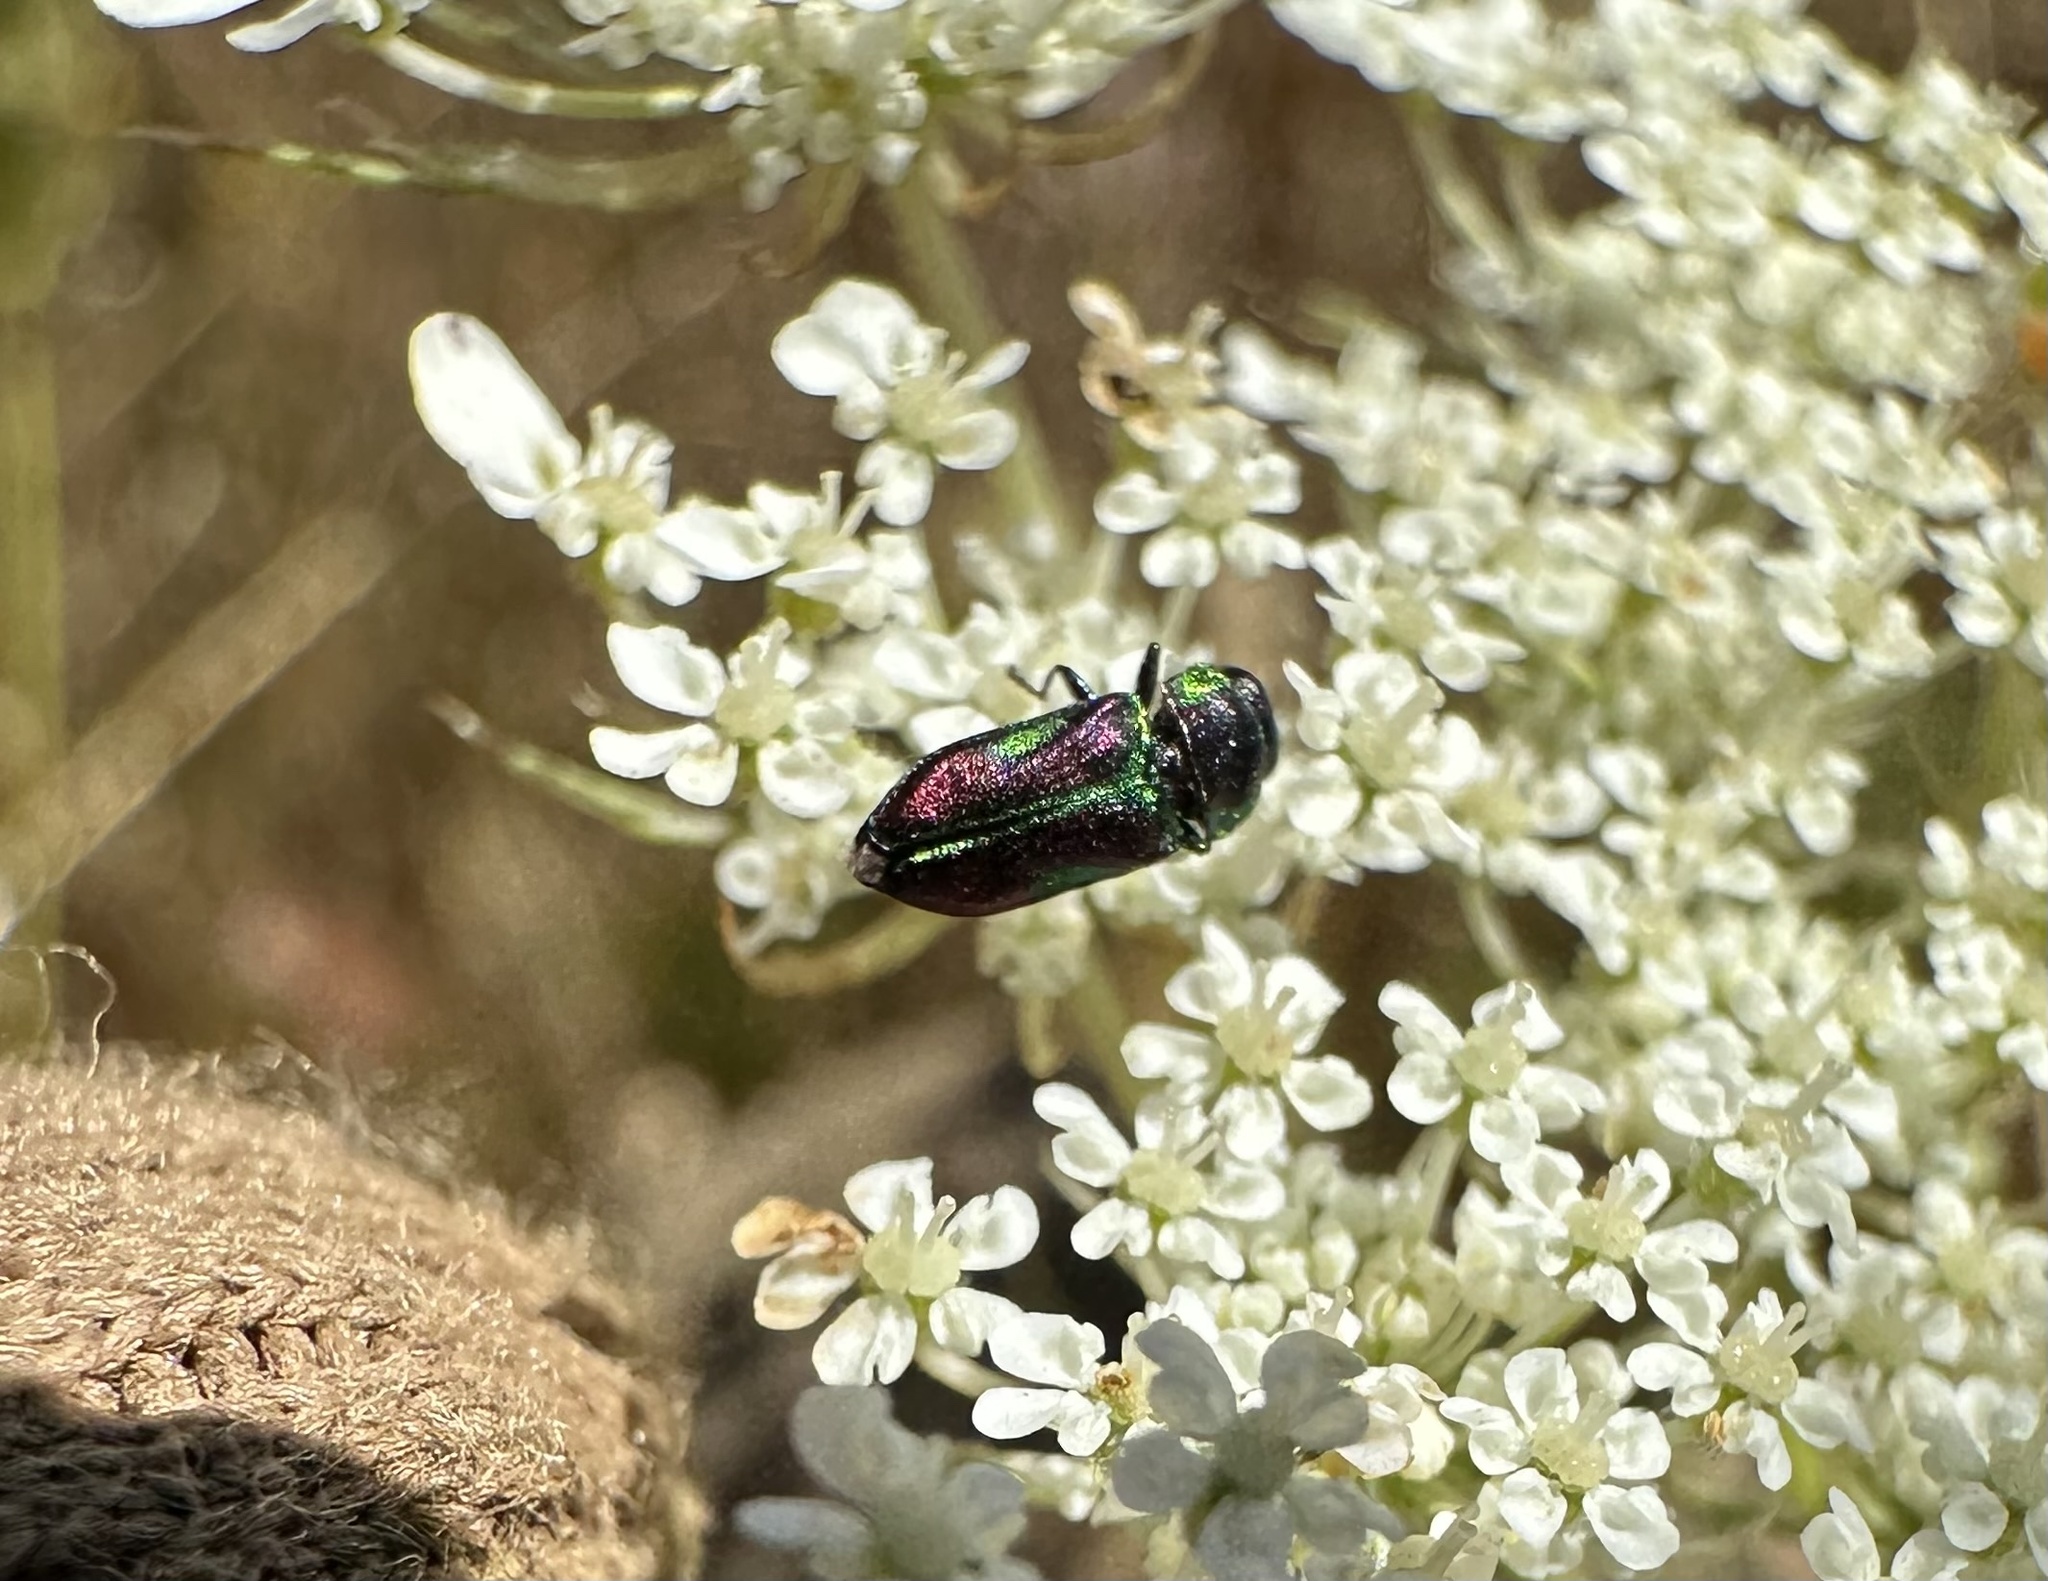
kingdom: Animalia
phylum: Arthropoda
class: Insecta
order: Coleoptera
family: Buprestidae
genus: Bilyaxia
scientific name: Bilyaxia concinna
